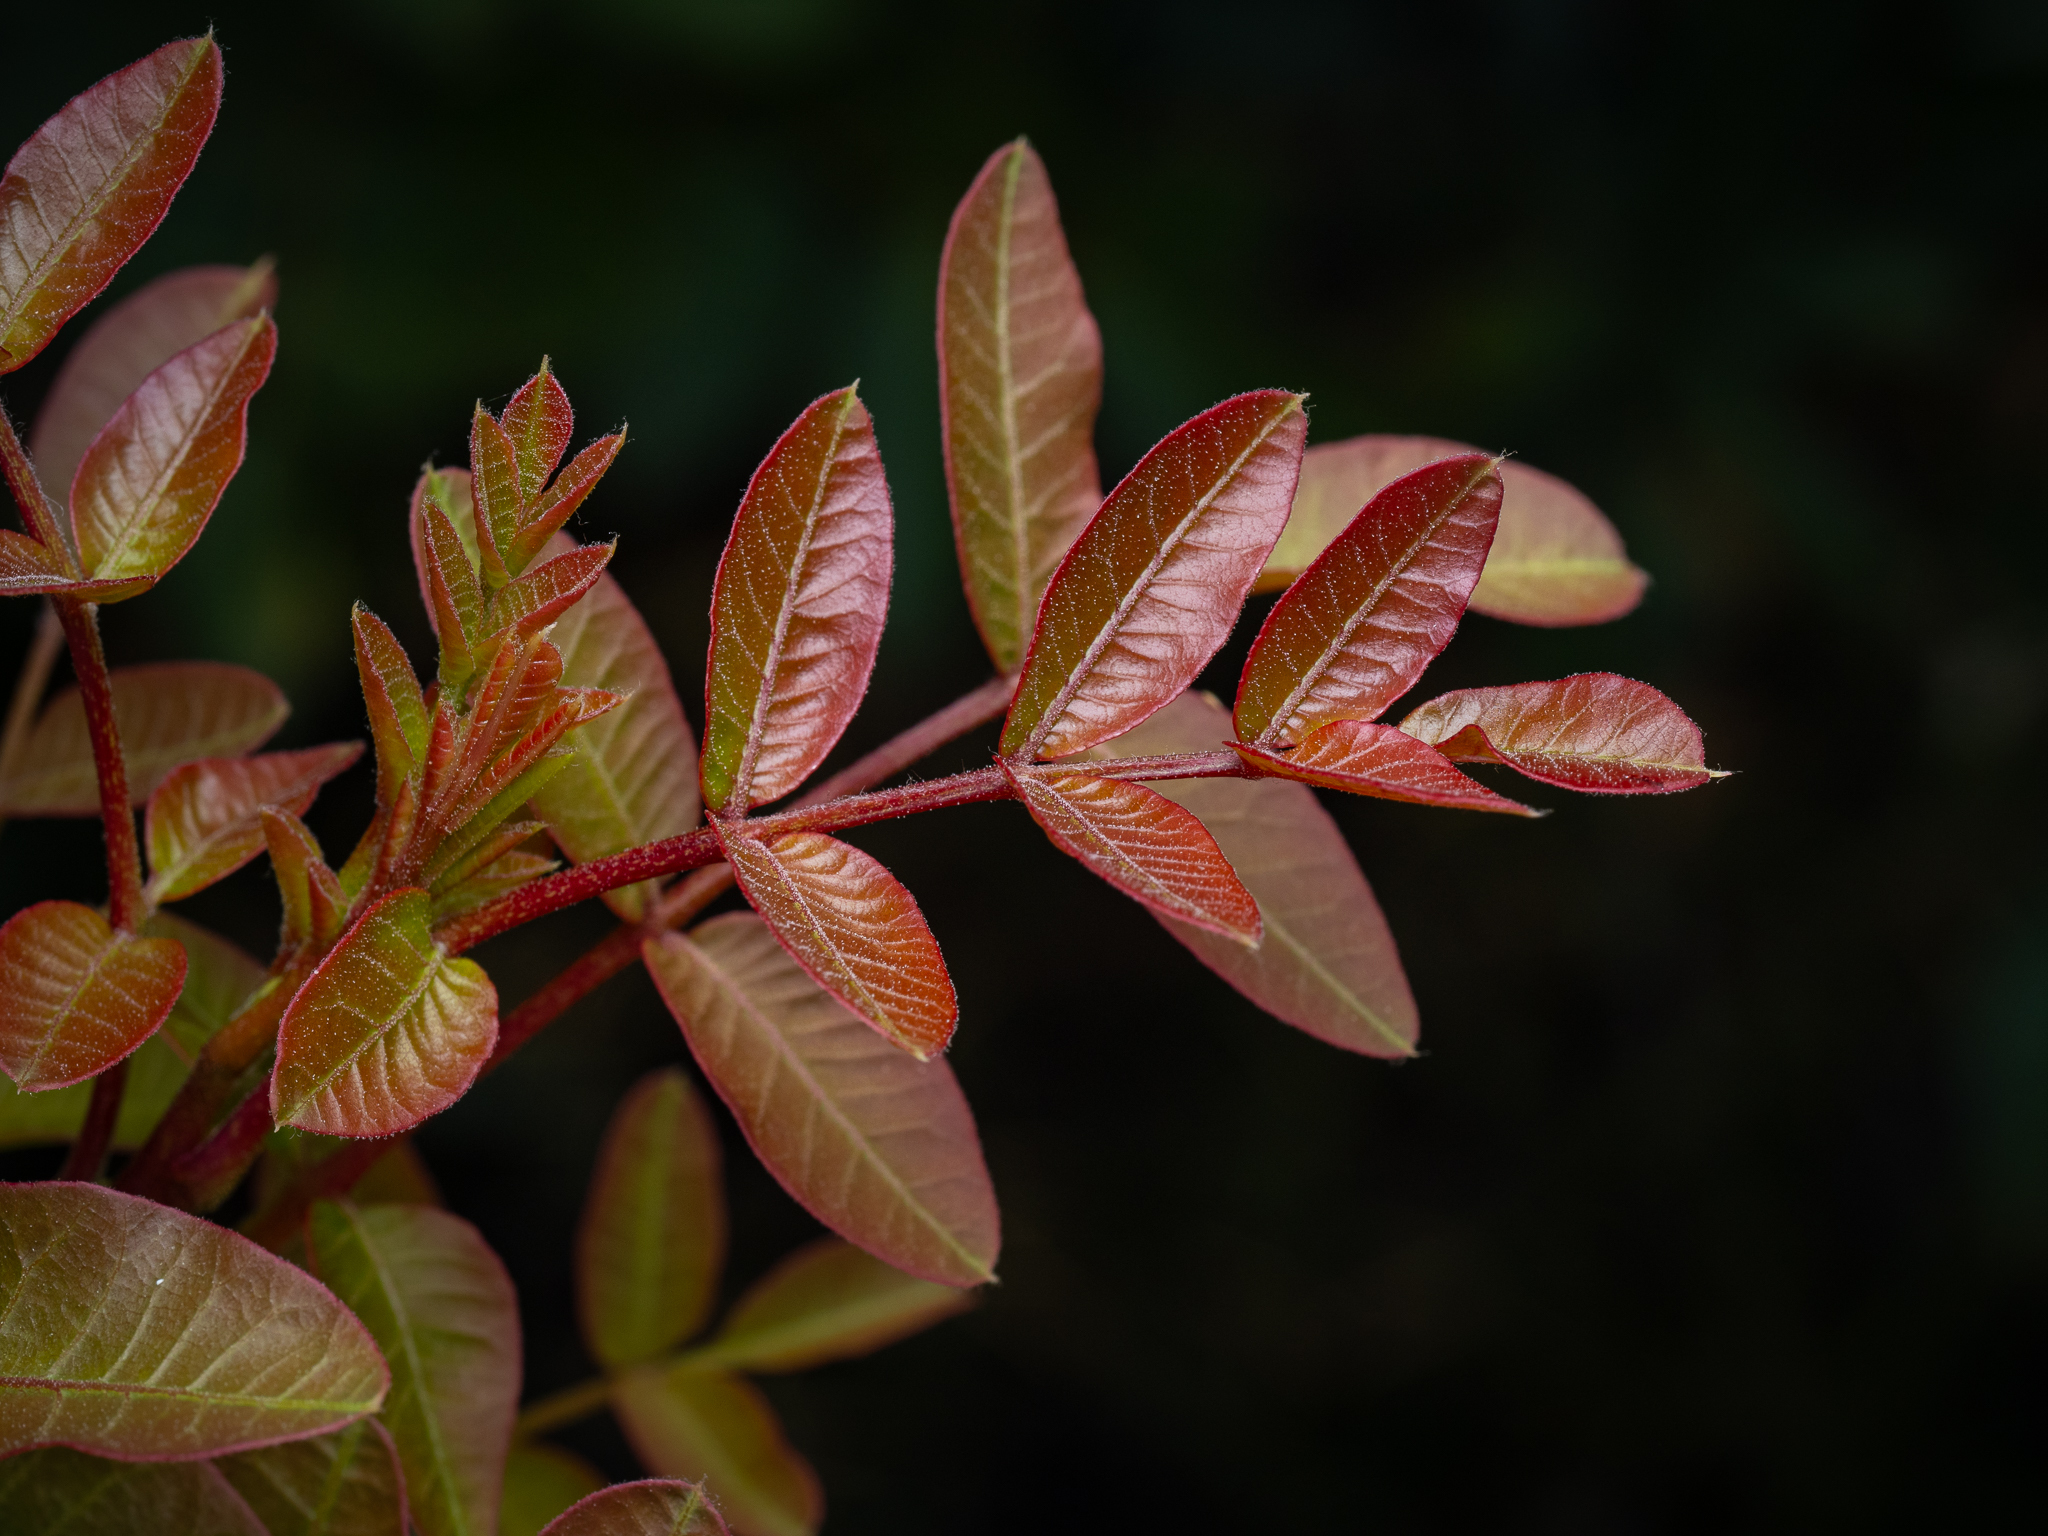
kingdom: Plantae
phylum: Tracheophyta
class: Magnoliopsida
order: Sapindales
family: Anacardiaceae
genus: Pistacia
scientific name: Pistacia terebinthus
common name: Terebinth
